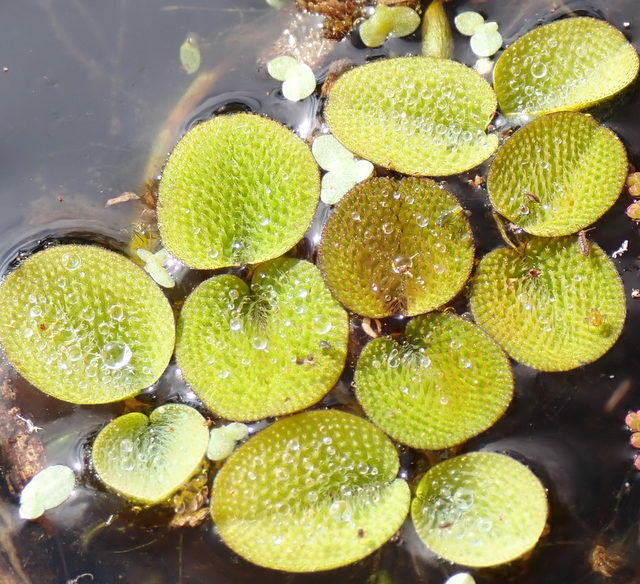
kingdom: Plantae
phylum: Tracheophyta
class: Polypodiopsida
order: Salviniales
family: Salviniaceae
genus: Salvinia
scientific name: Salvinia minima
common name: Water spangles
